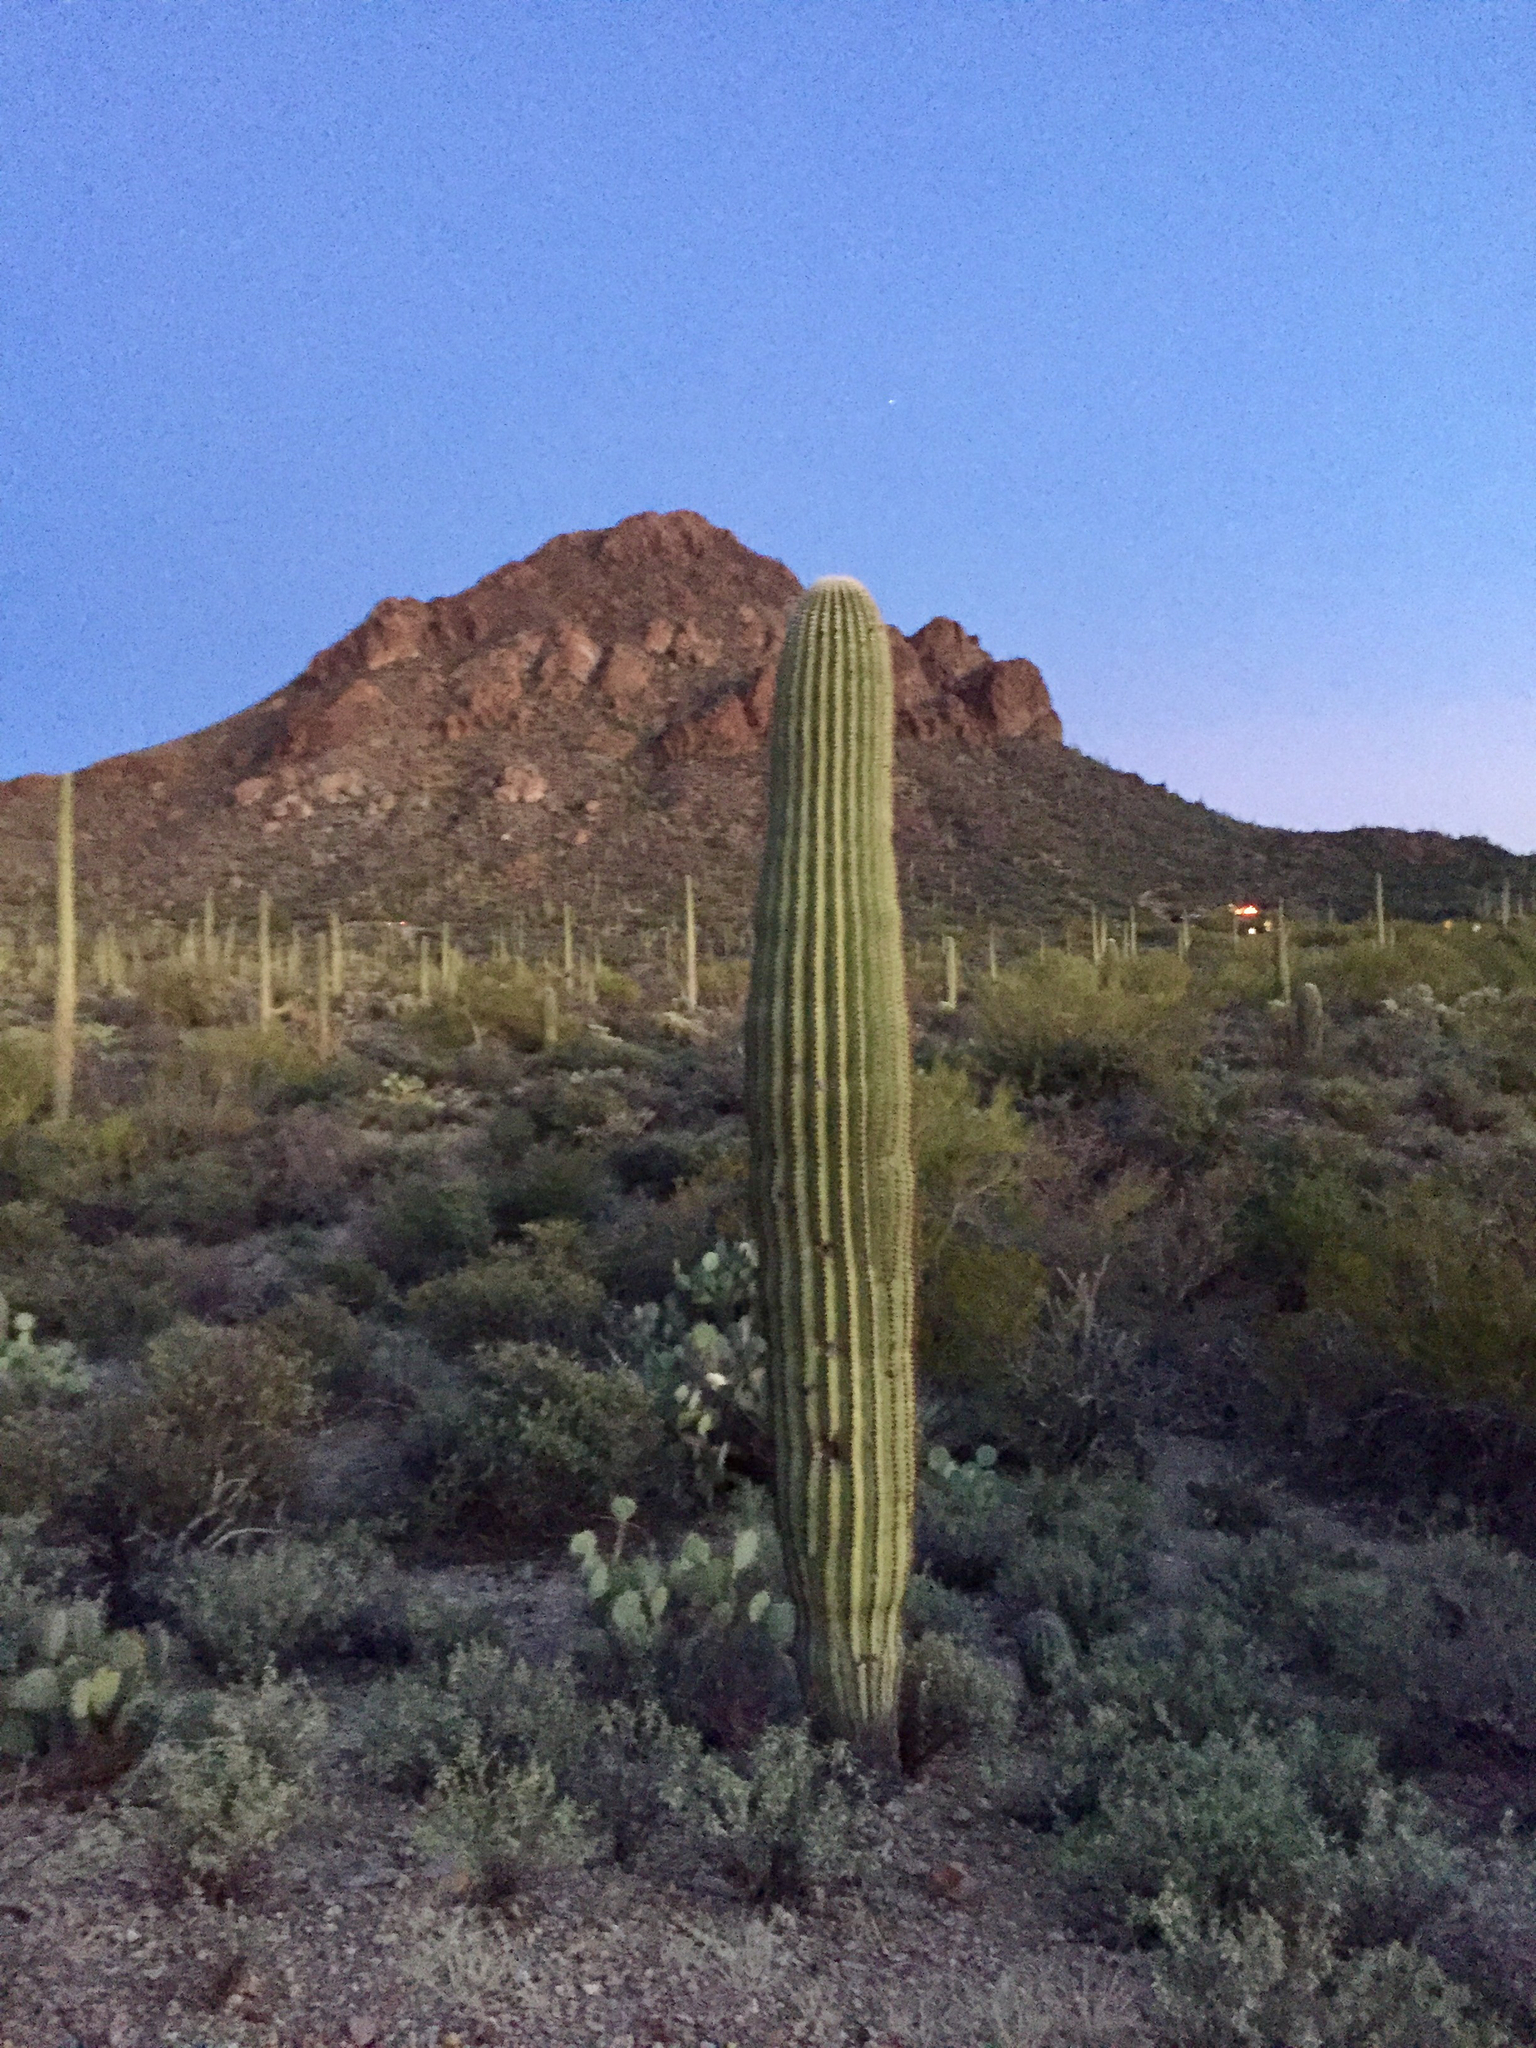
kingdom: Plantae
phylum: Tracheophyta
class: Magnoliopsida
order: Caryophyllales
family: Cactaceae
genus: Carnegiea
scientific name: Carnegiea gigantea
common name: Saguaro
